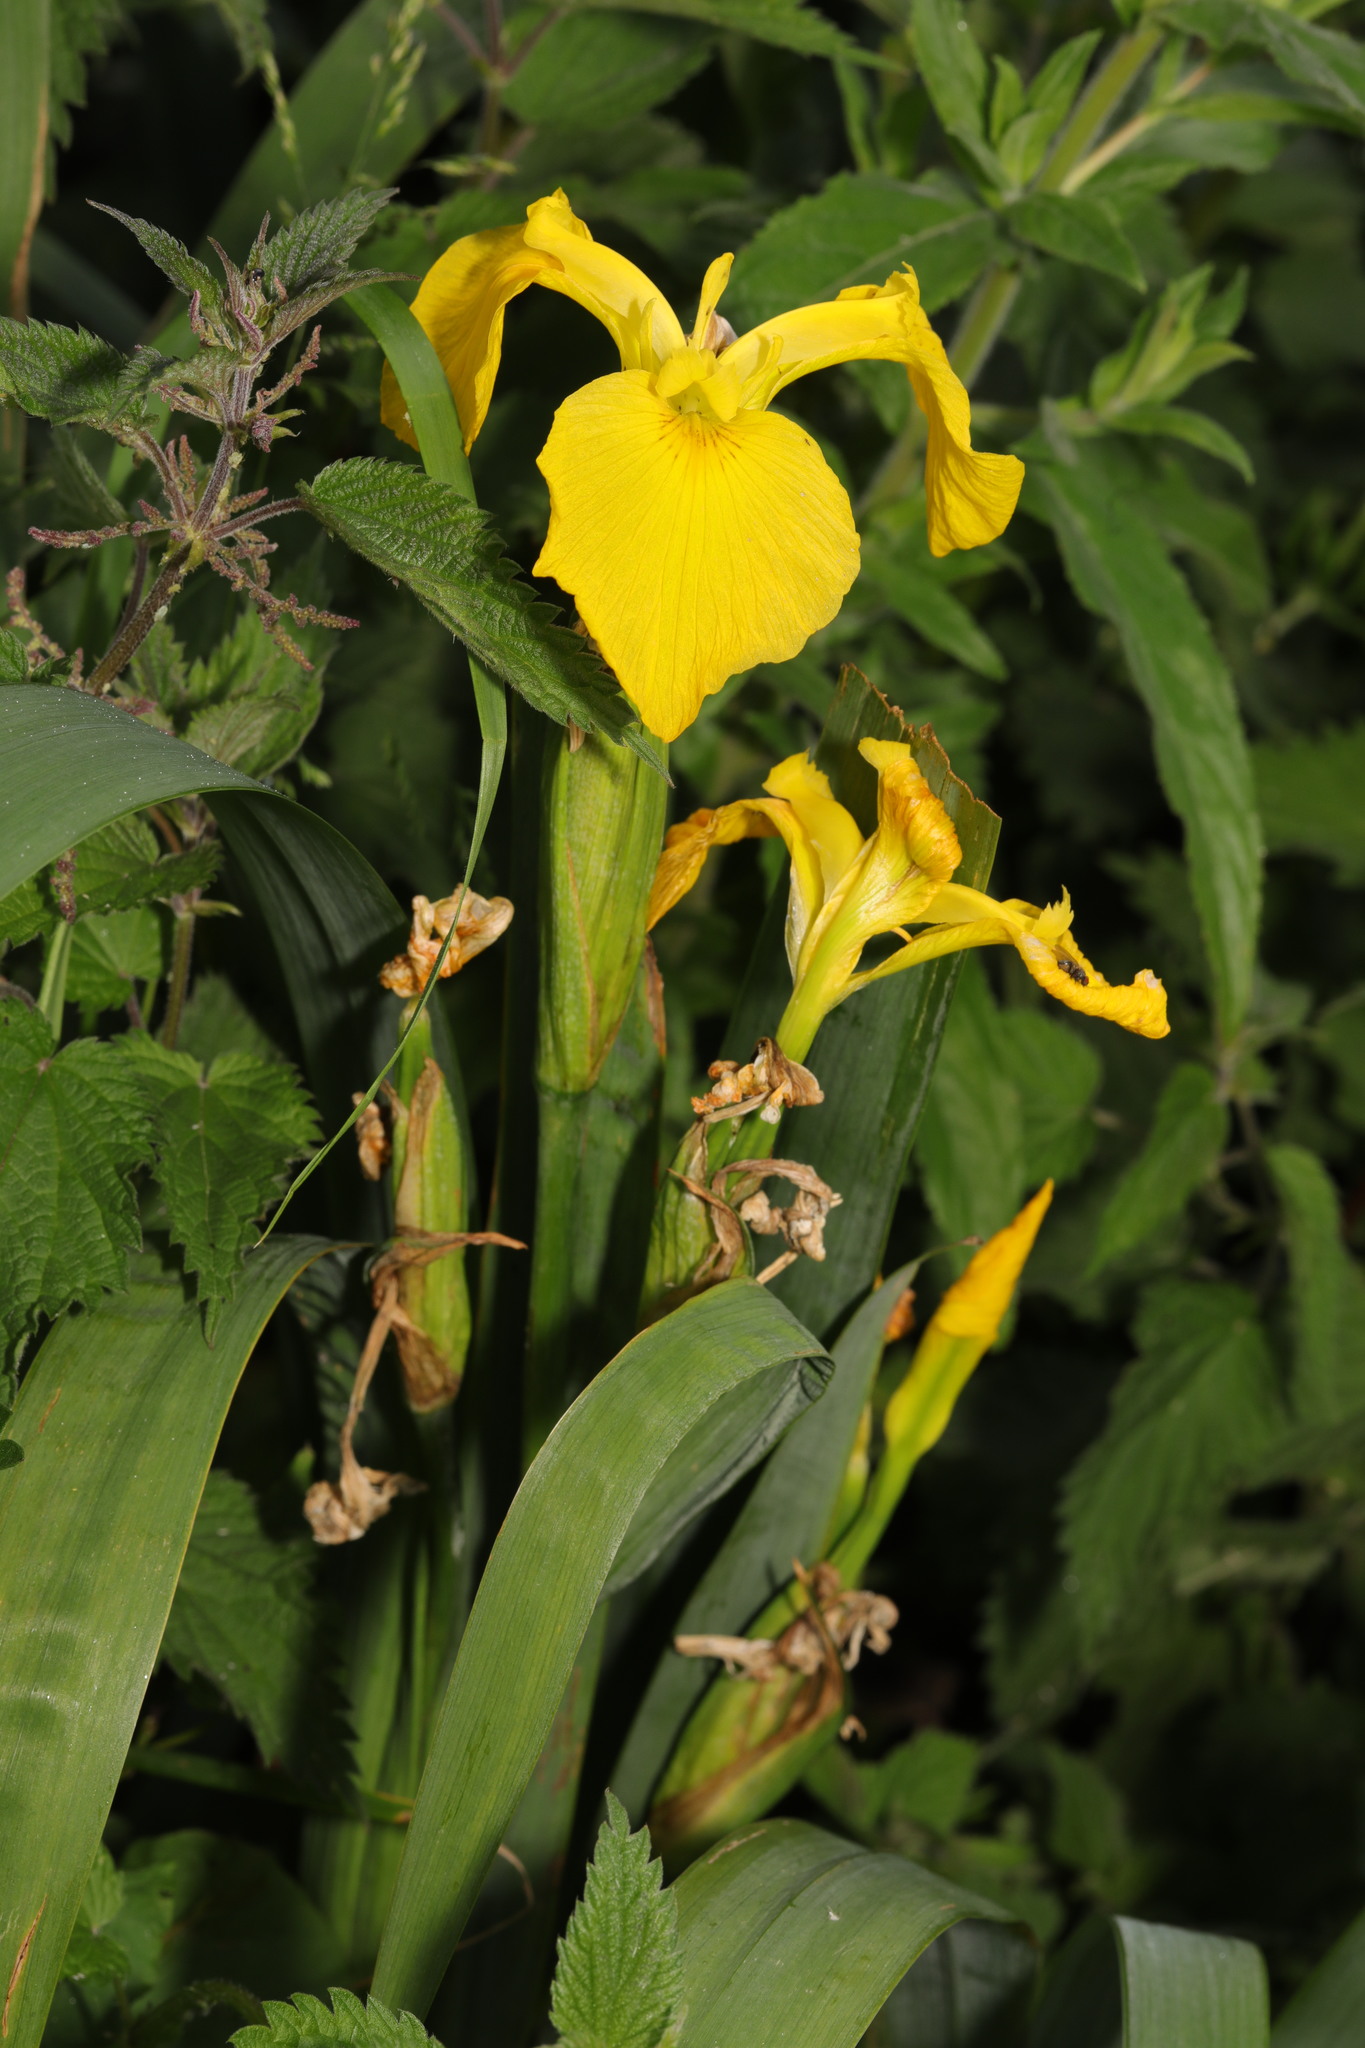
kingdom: Plantae
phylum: Tracheophyta
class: Liliopsida
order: Asparagales
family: Iridaceae
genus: Iris
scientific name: Iris pseudacorus
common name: Yellow flag
